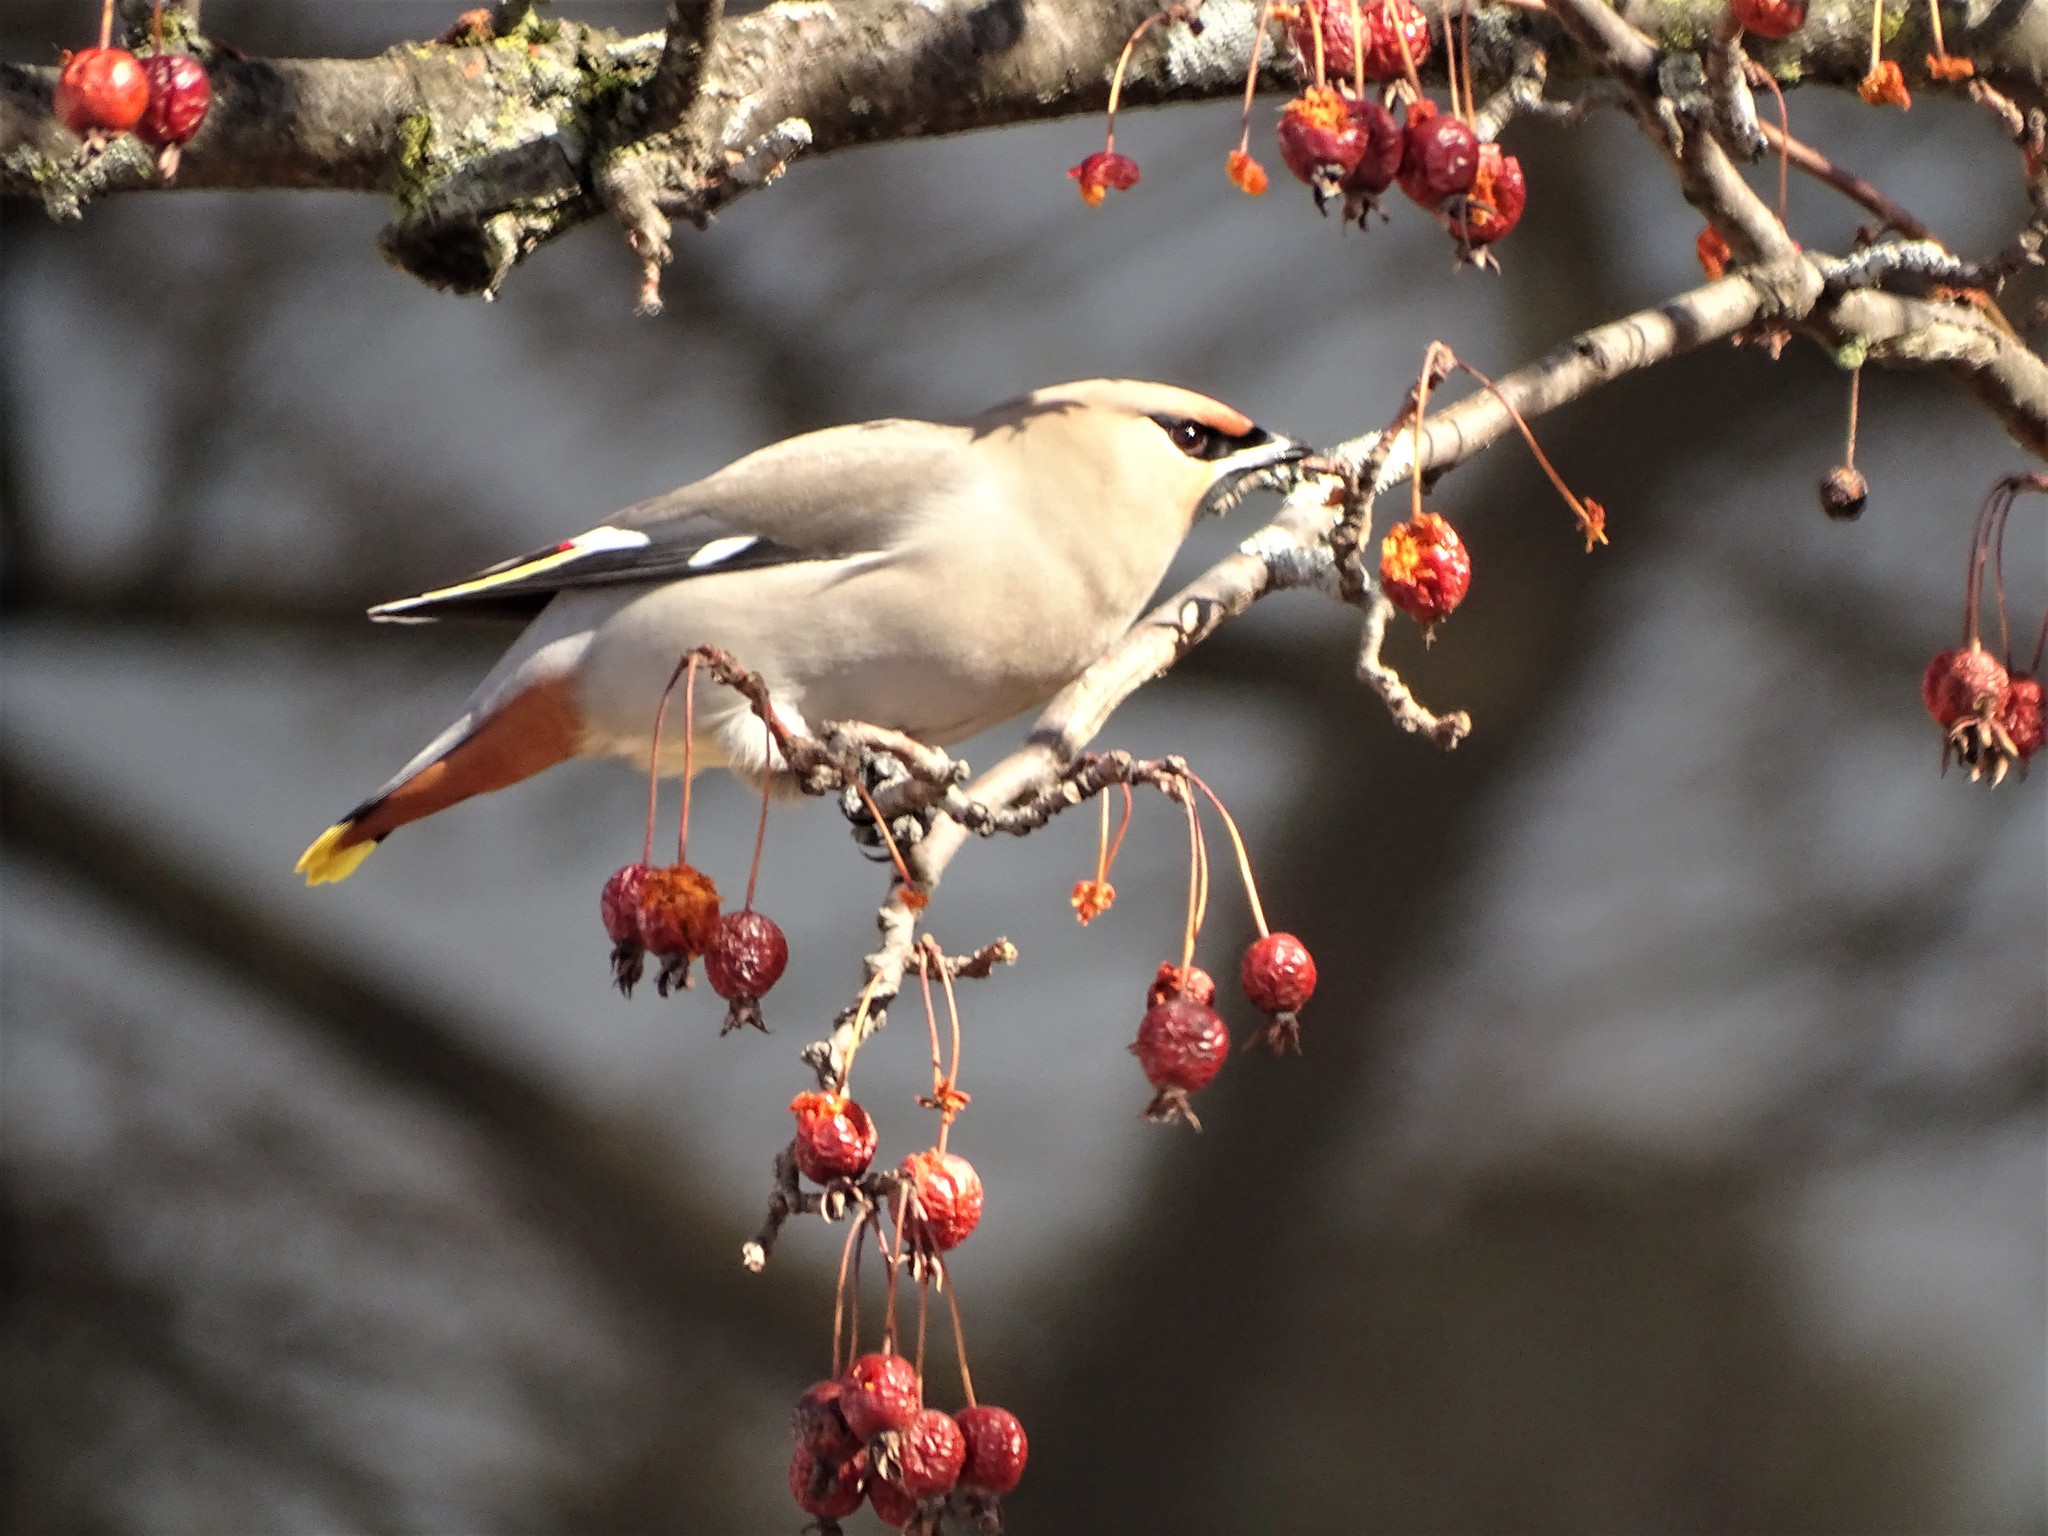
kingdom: Animalia
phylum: Chordata
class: Aves
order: Passeriformes
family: Bombycillidae
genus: Bombycilla
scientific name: Bombycilla garrulus
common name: Bohemian waxwing
